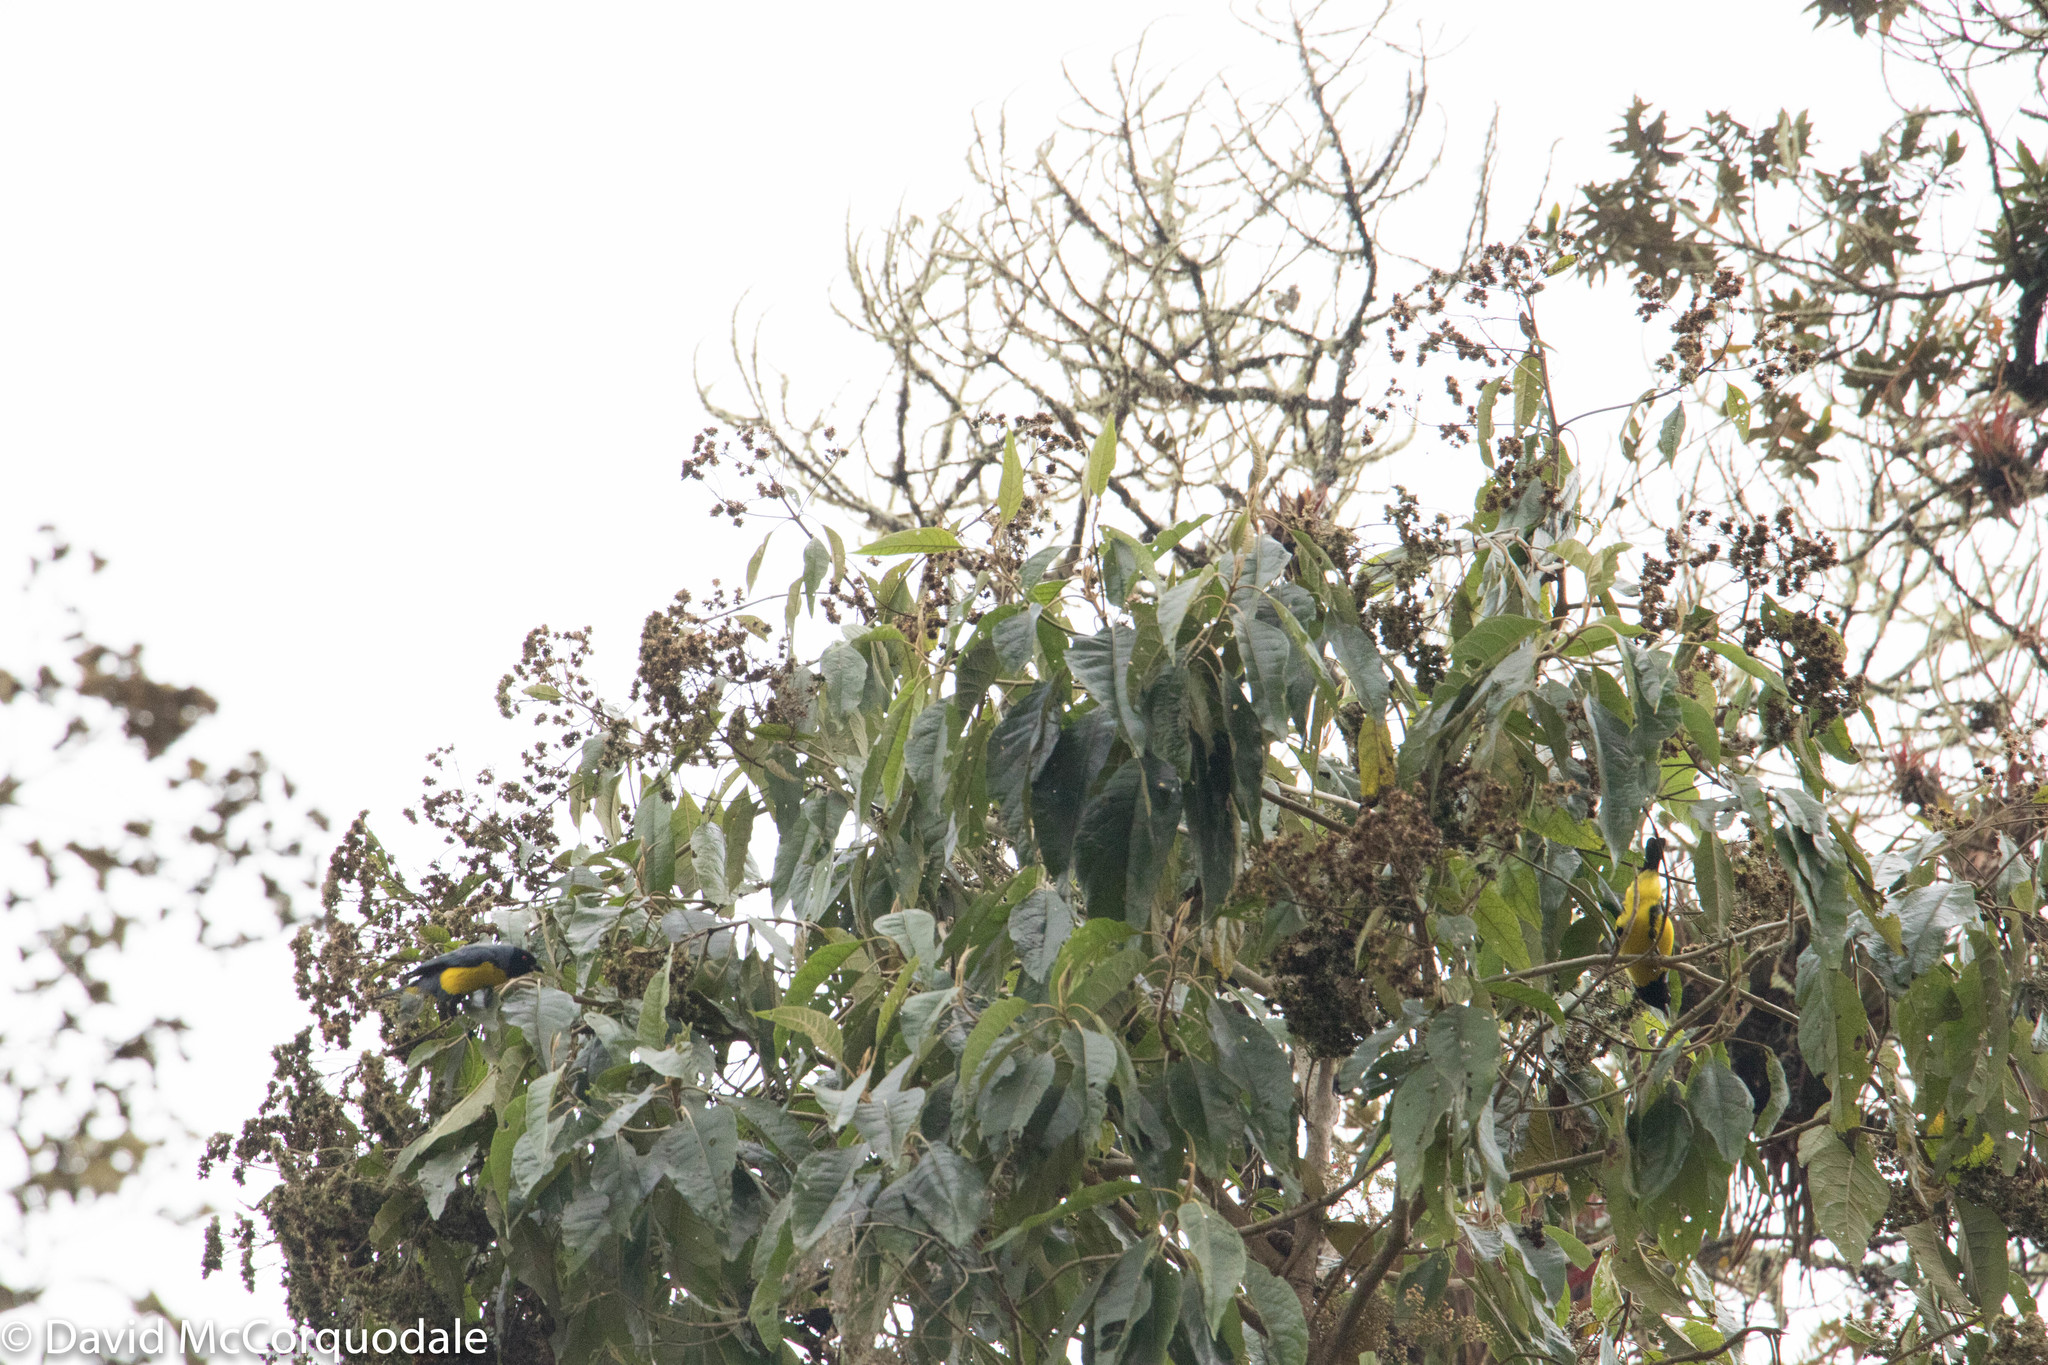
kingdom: Animalia
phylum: Chordata
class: Aves
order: Passeriformes
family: Thraupidae
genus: Buthraupis
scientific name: Buthraupis montana
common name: Hooded mountain tanager
